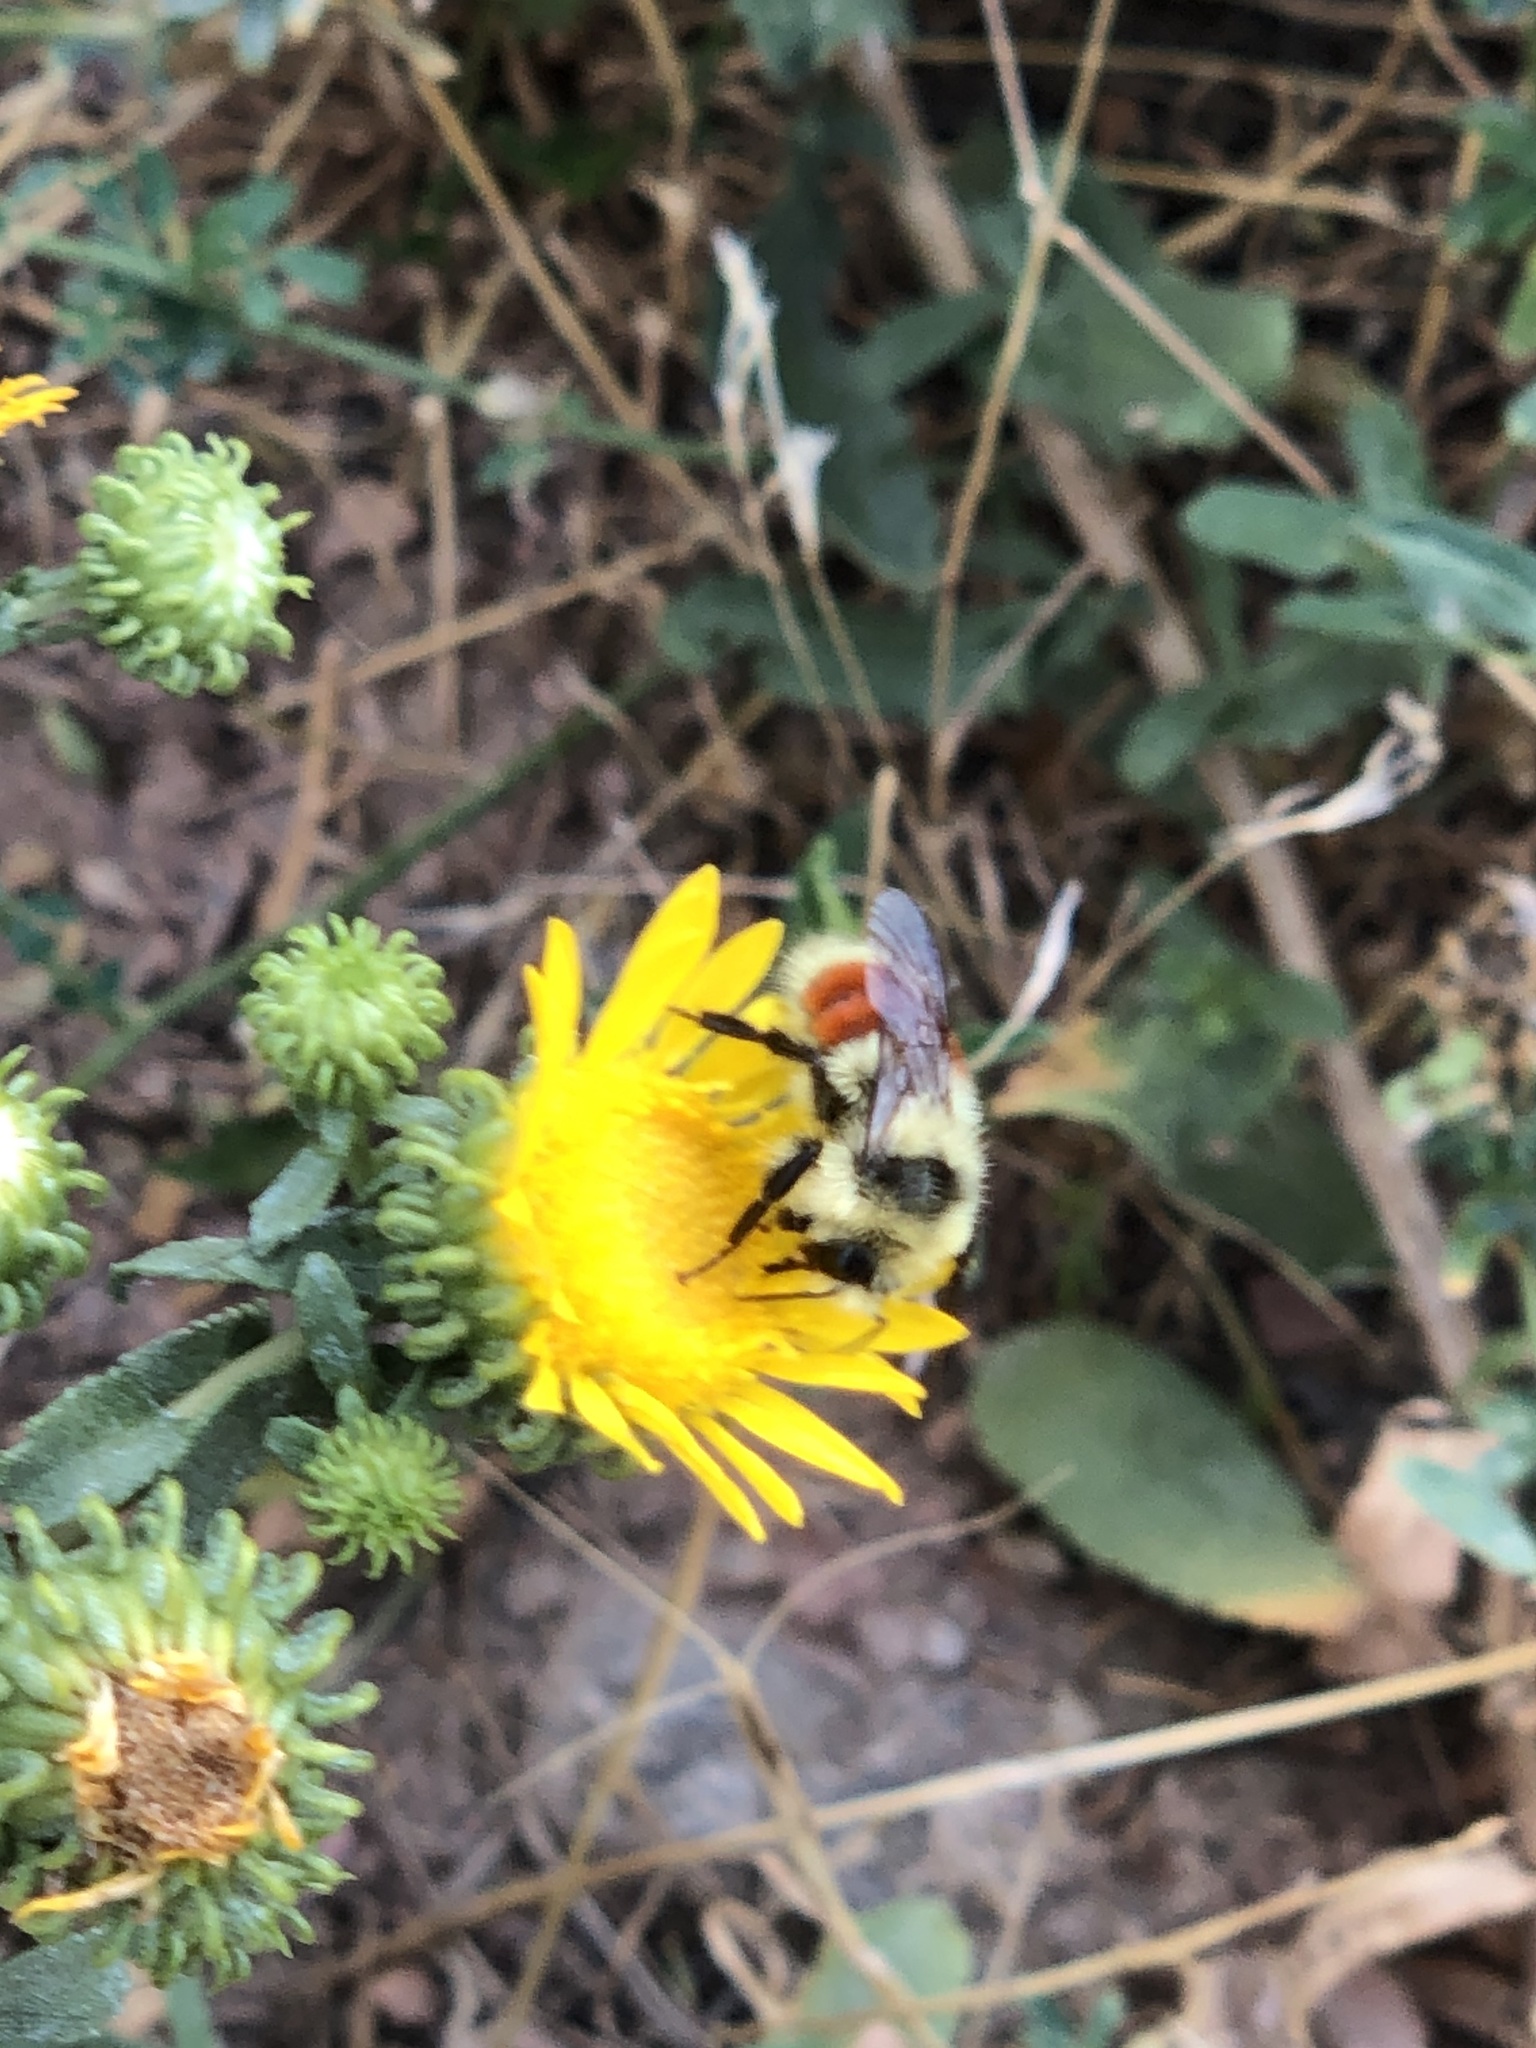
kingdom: Animalia
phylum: Arthropoda
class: Insecta
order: Hymenoptera
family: Apidae
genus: Bombus
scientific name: Bombus huntii
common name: Hunt bumble bee
